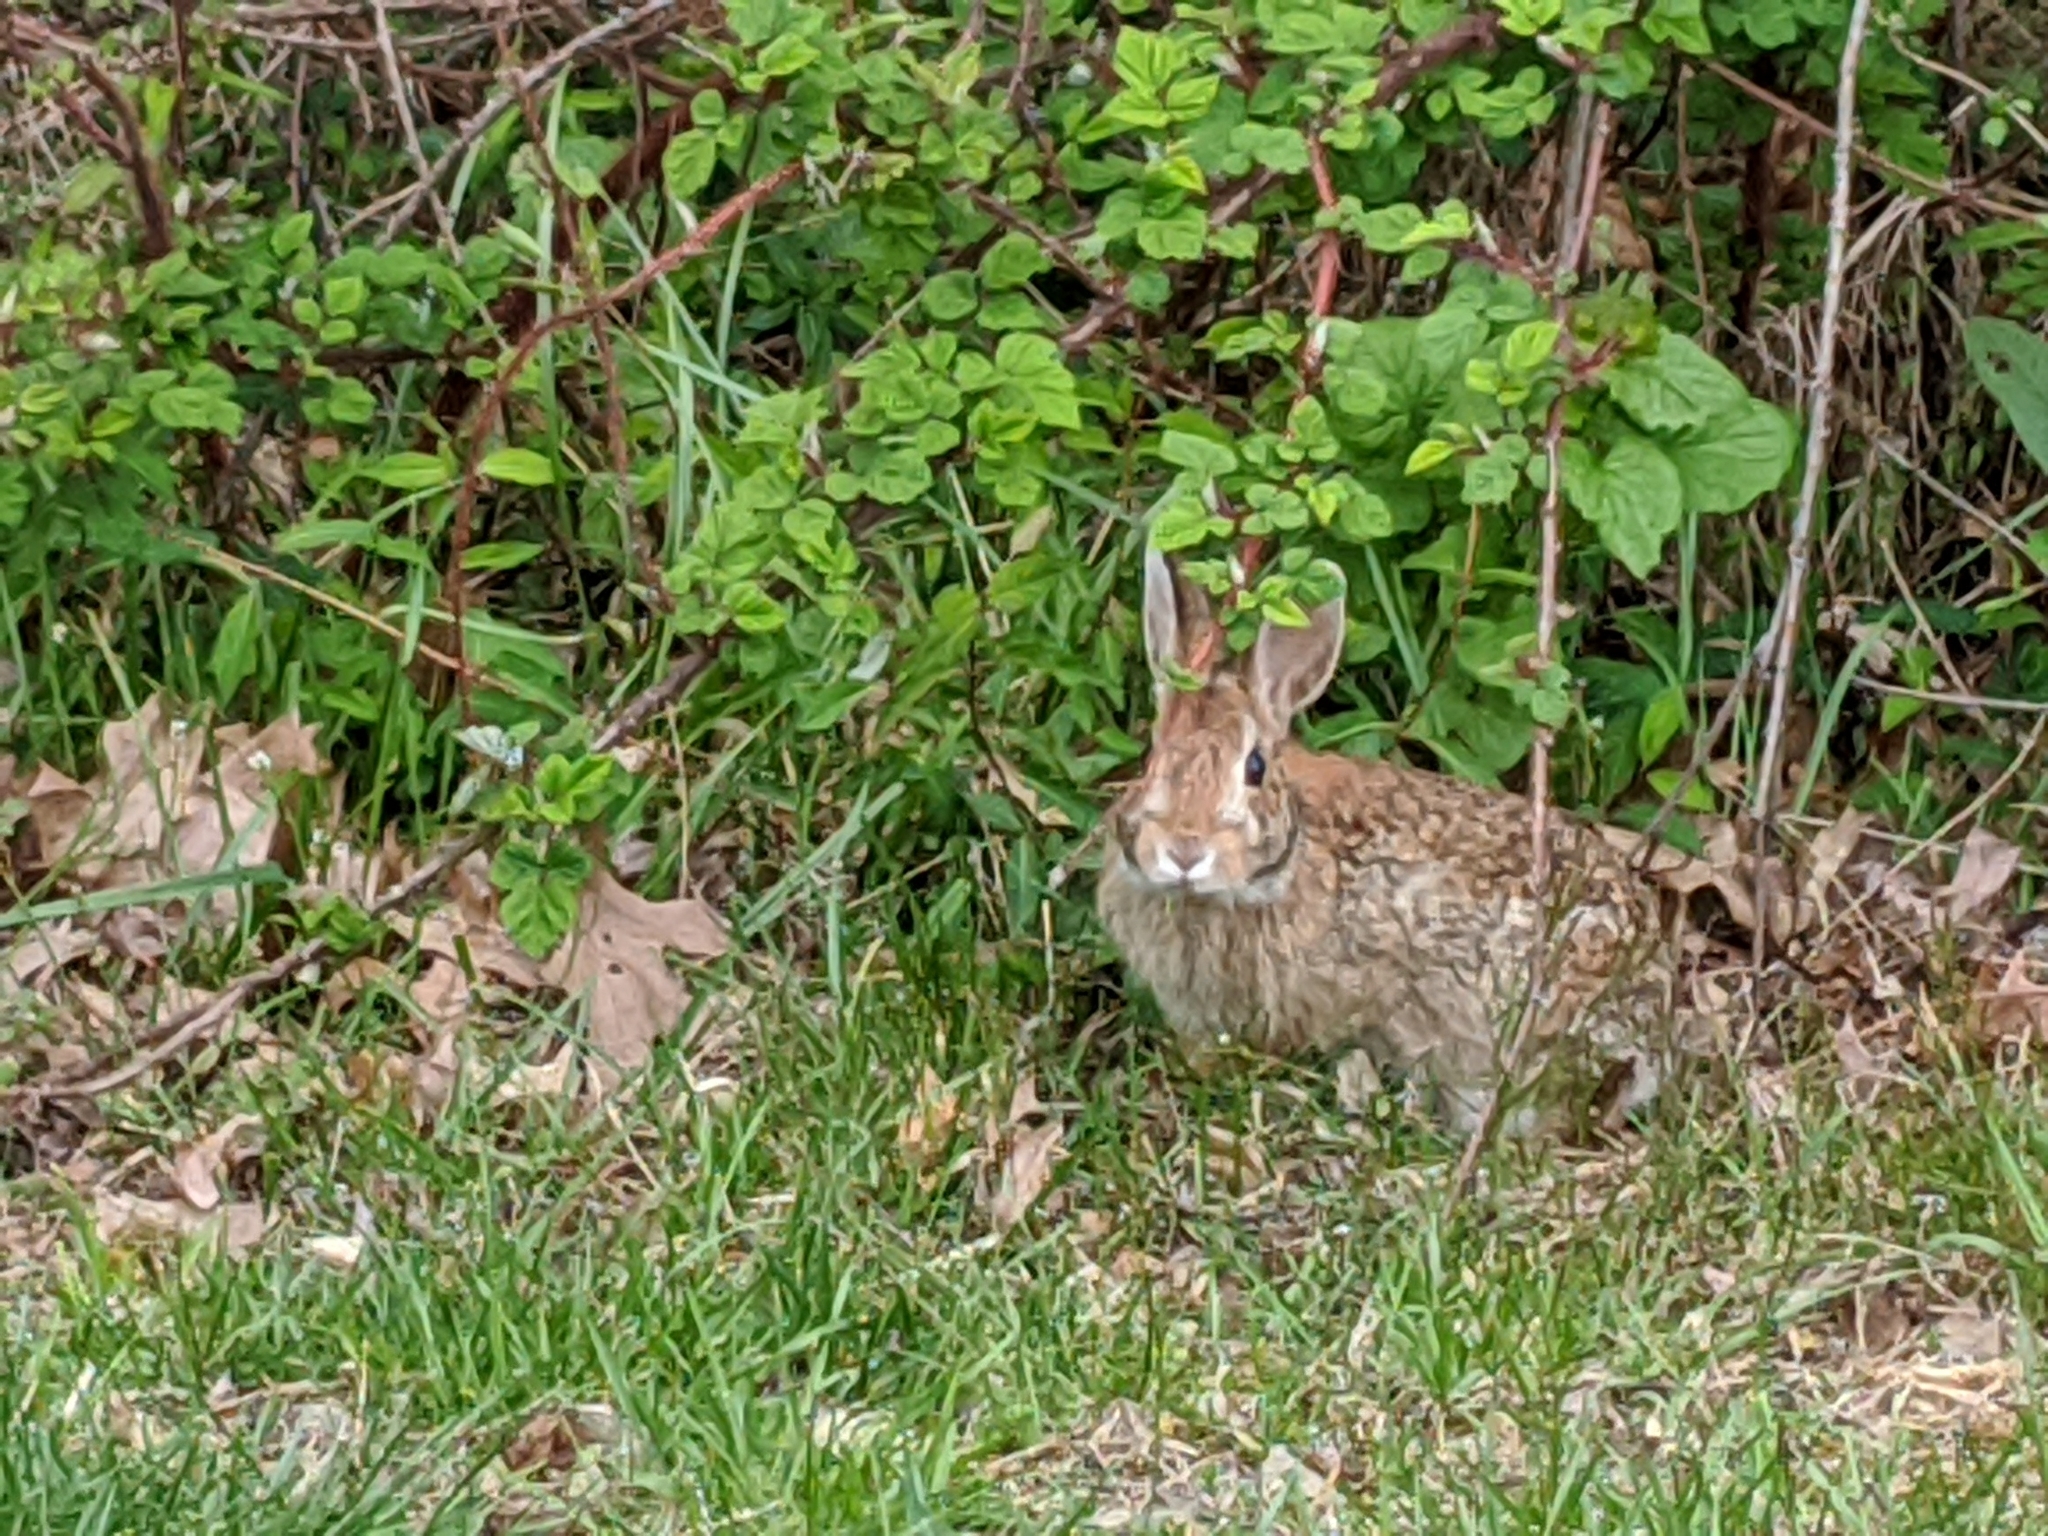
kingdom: Animalia
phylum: Chordata
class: Mammalia
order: Lagomorpha
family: Leporidae
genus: Sylvilagus
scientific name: Sylvilagus floridanus
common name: Eastern cottontail
